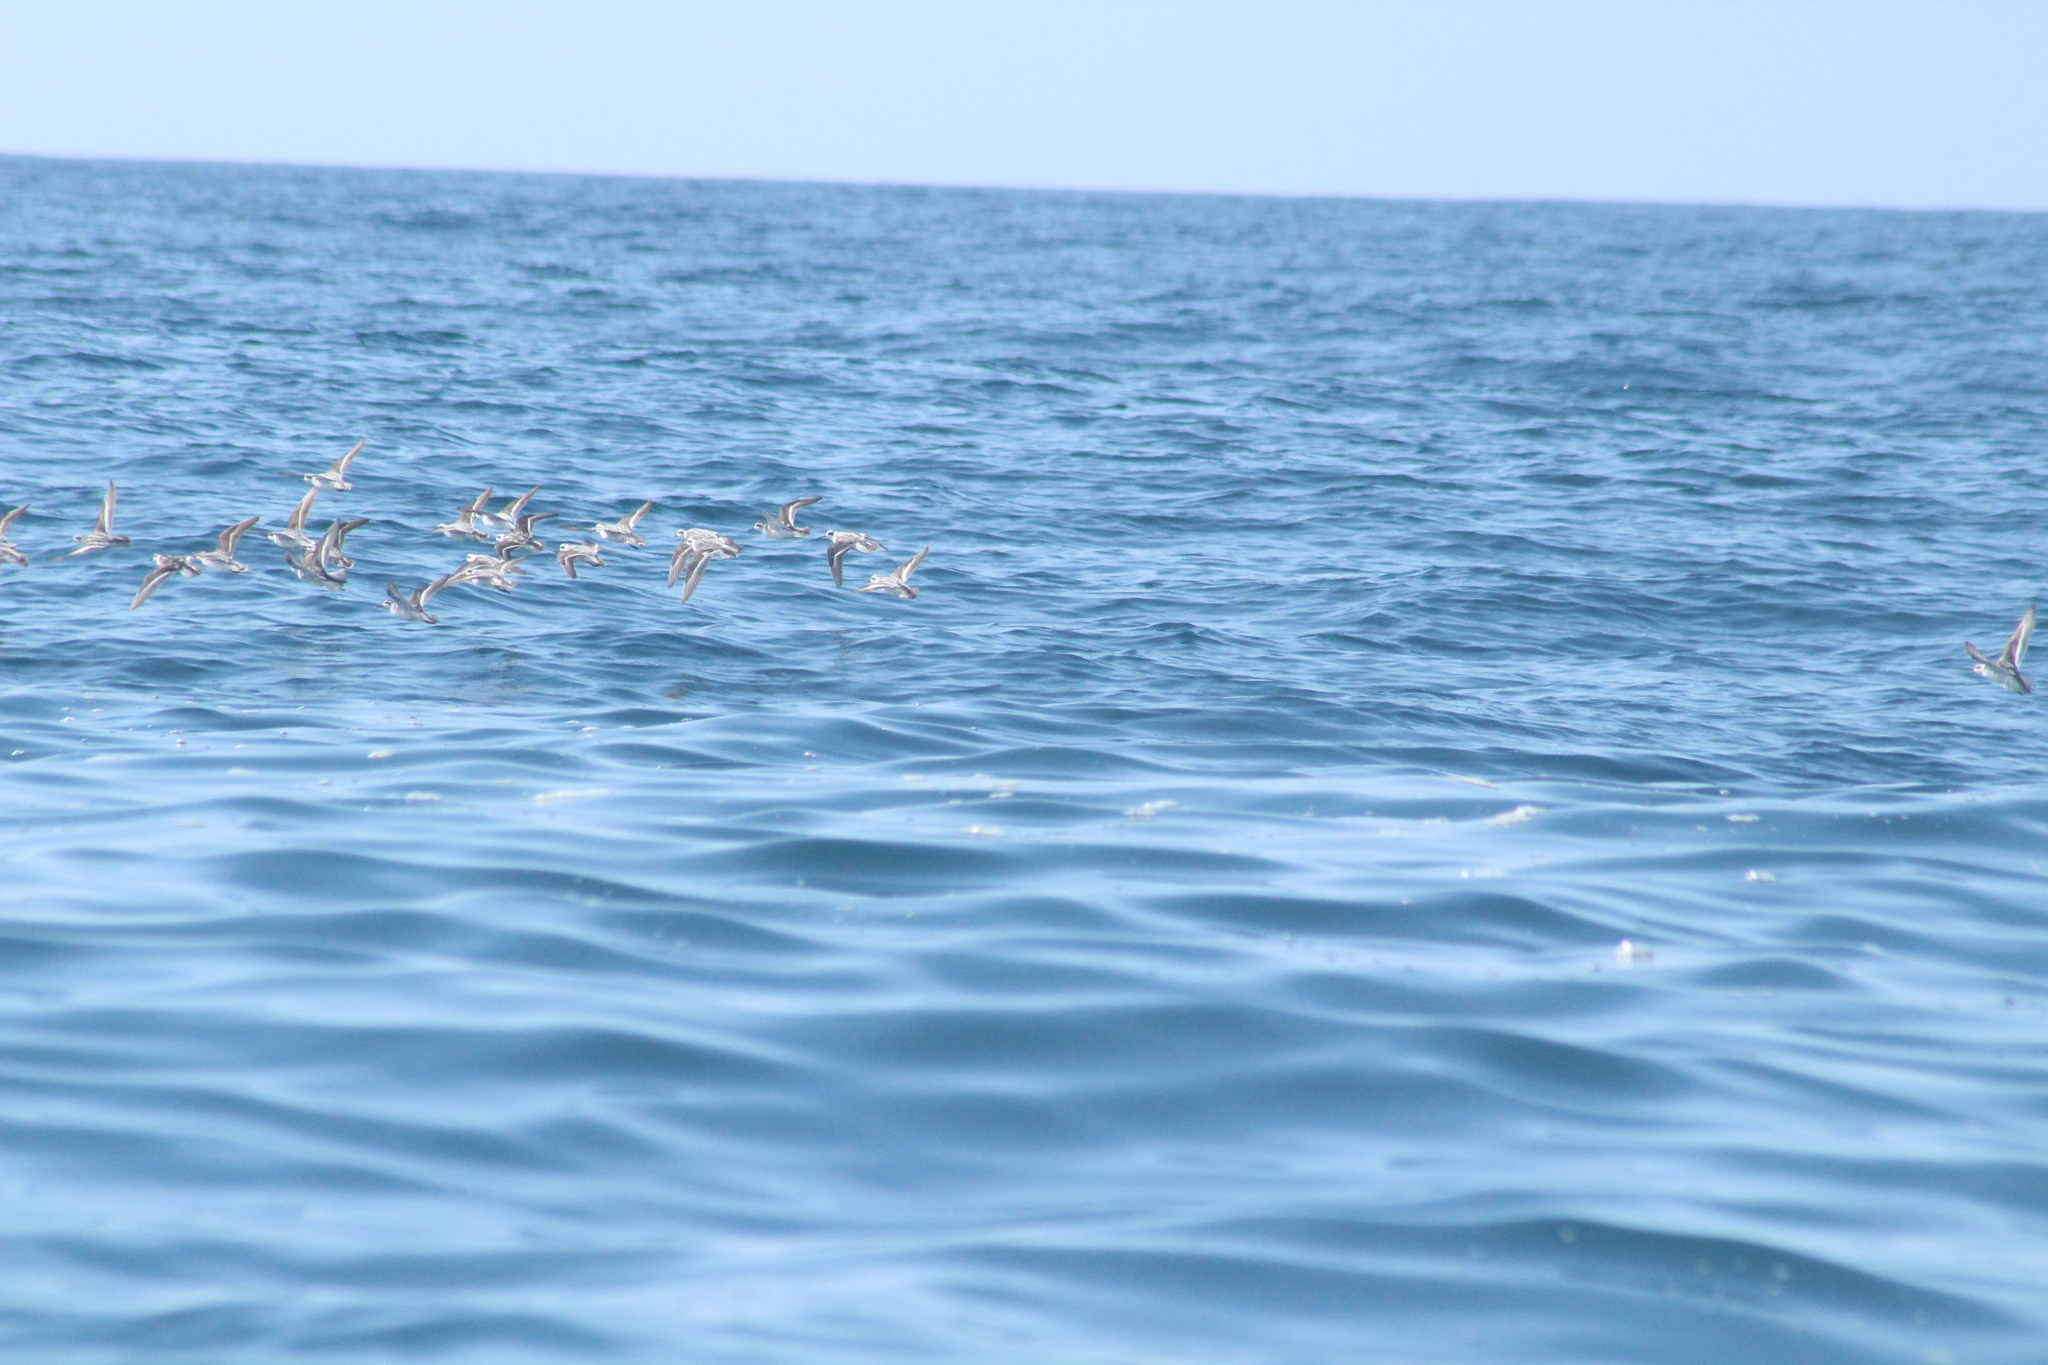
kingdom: Animalia
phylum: Chordata
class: Aves
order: Charadriiformes
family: Scolopacidae
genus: Phalaropus
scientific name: Phalaropus lobatus
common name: Red-necked phalarope
